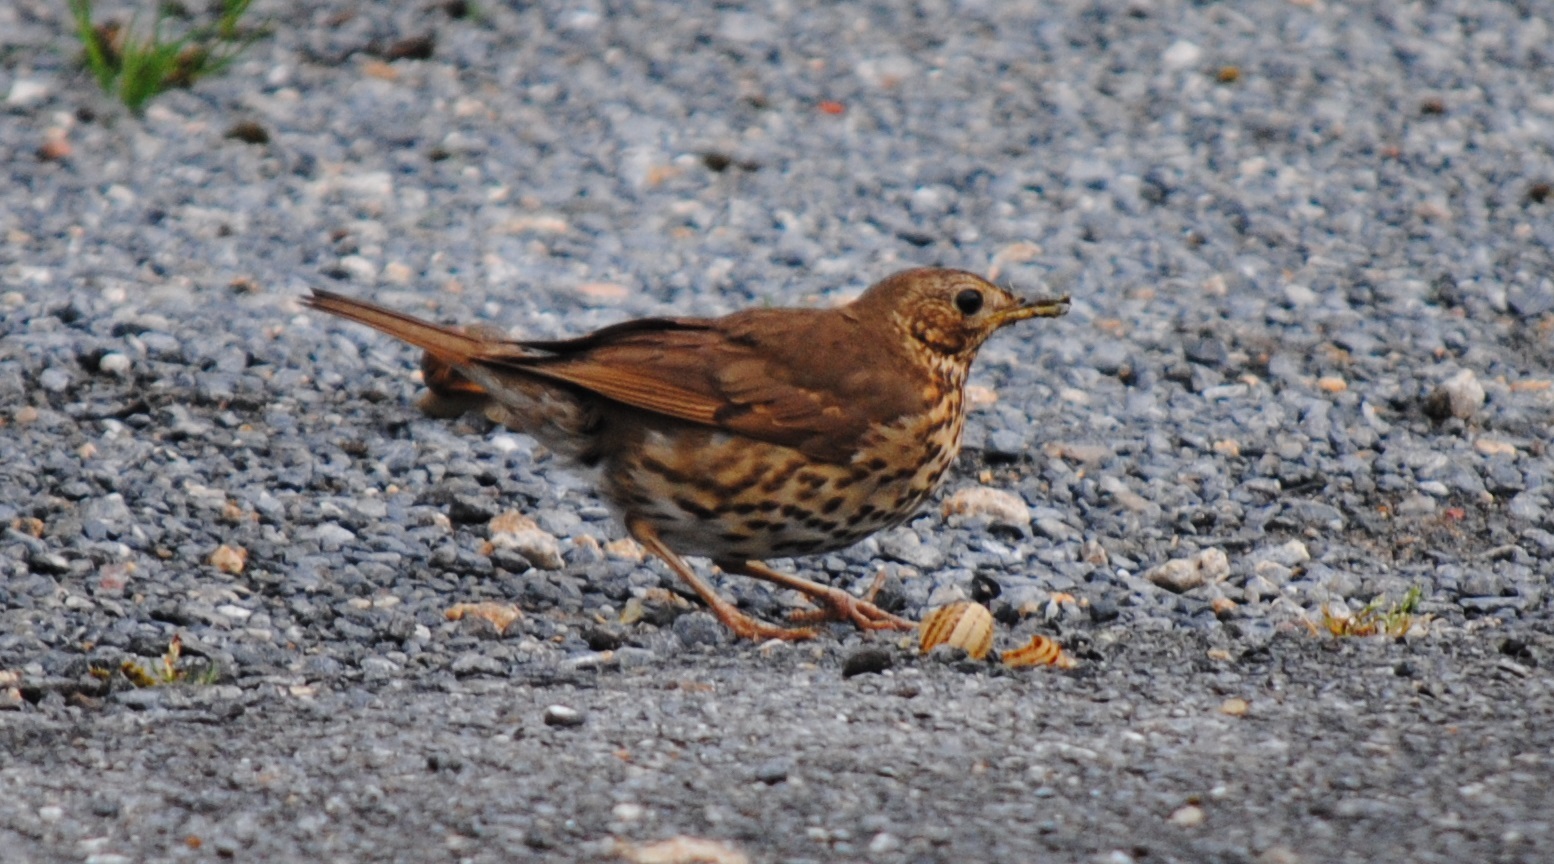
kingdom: Animalia
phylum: Chordata
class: Aves
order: Passeriformes
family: Turdidae
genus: Turdus
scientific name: Turdus philomelos
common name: Song thrush
